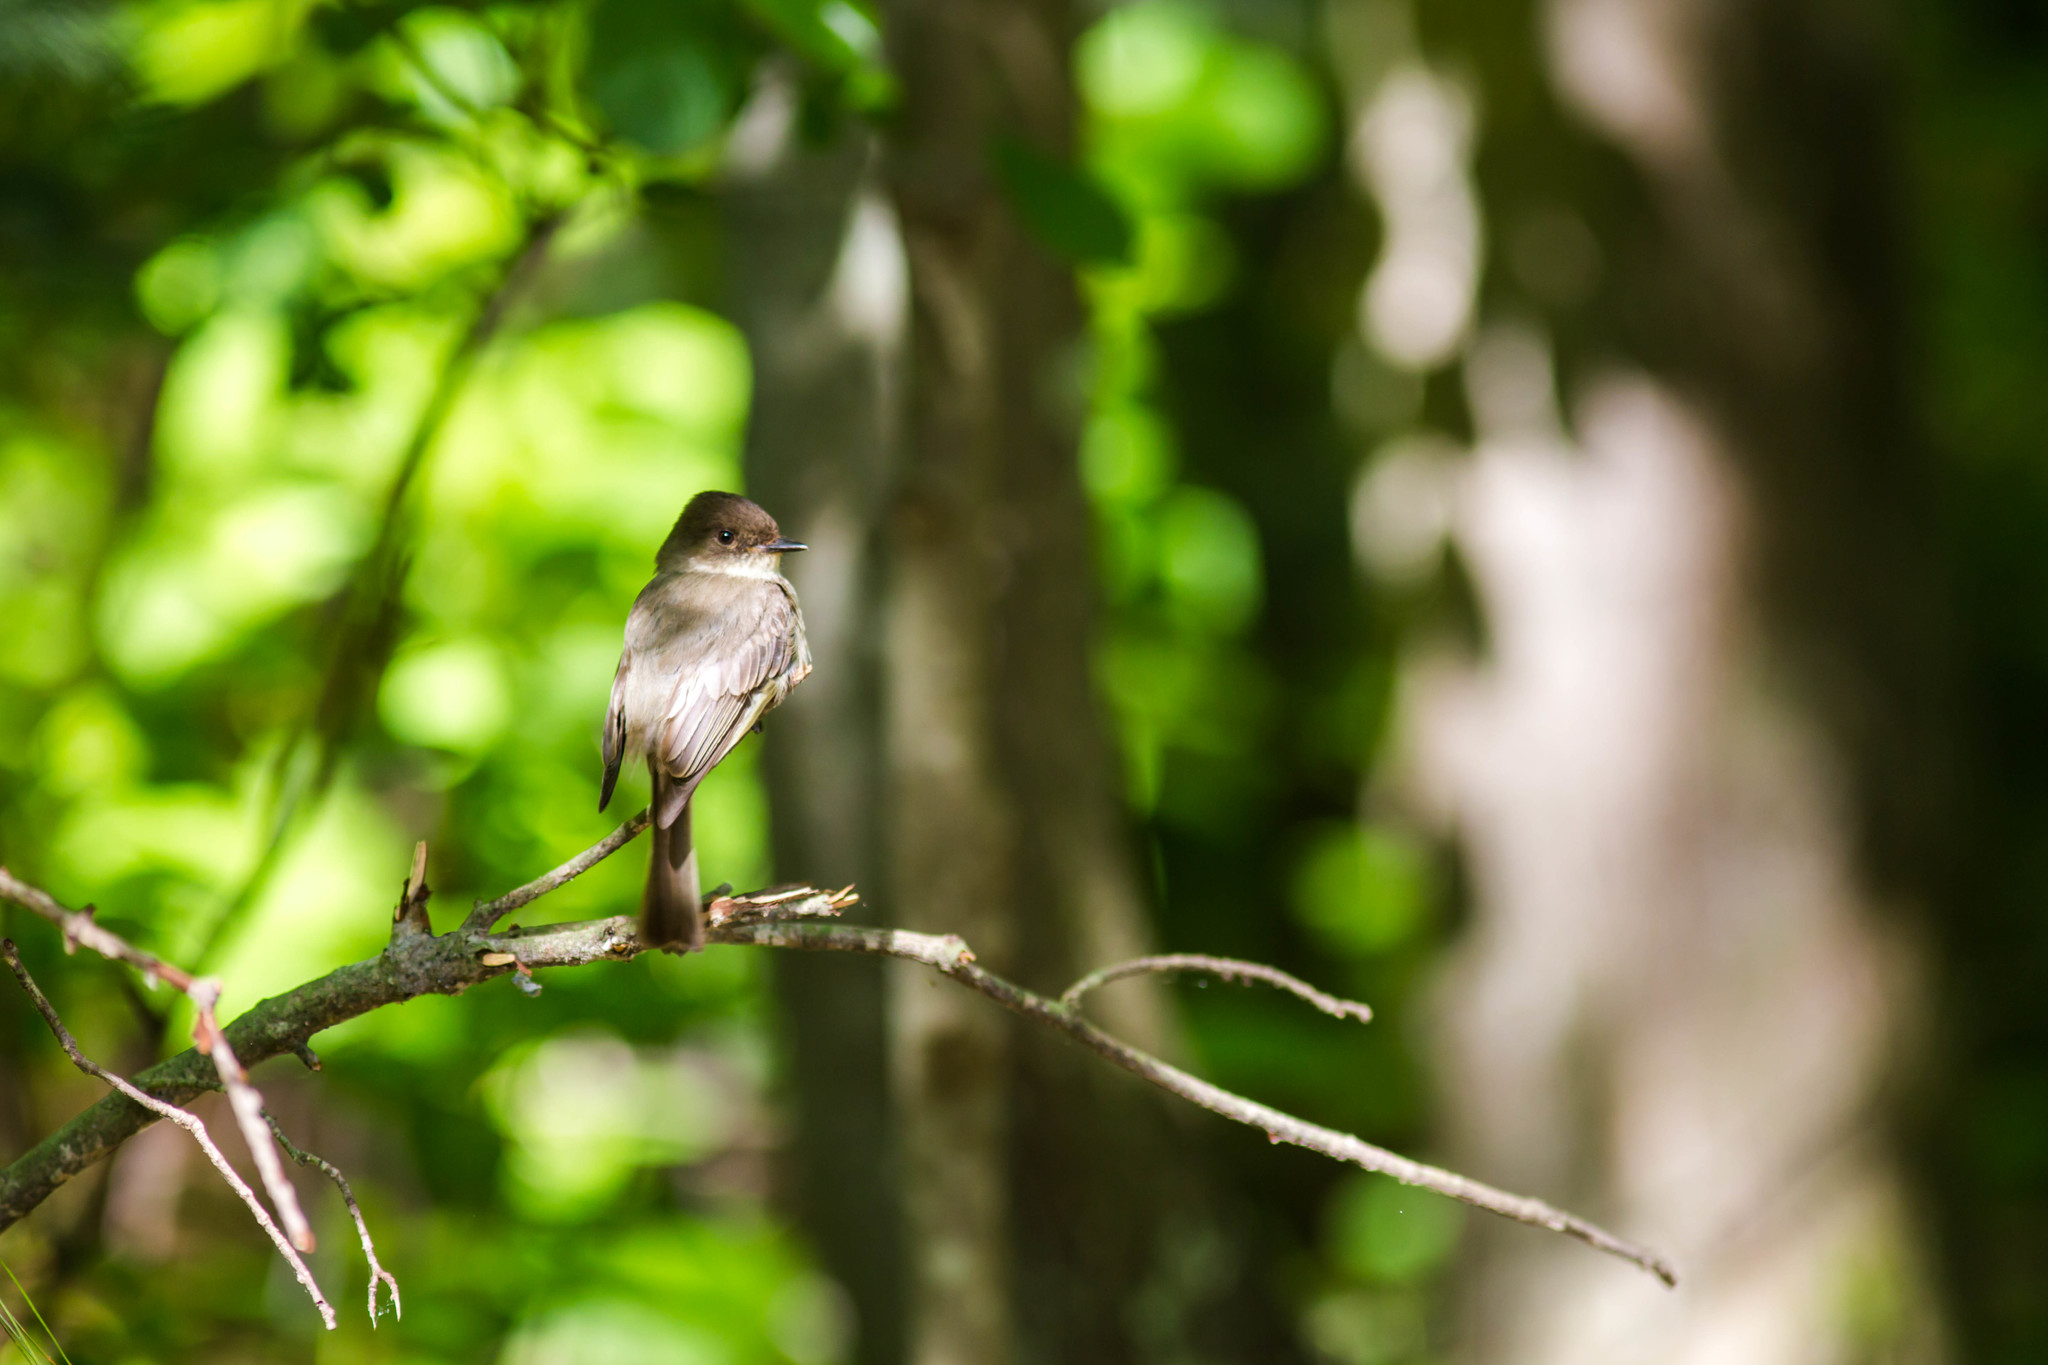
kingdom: Animalia
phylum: Chordata
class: Aves
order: Passeriformes
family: Tyrannidae
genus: Sayornis
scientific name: Sayornis phoebe
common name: Eastern phoebe
